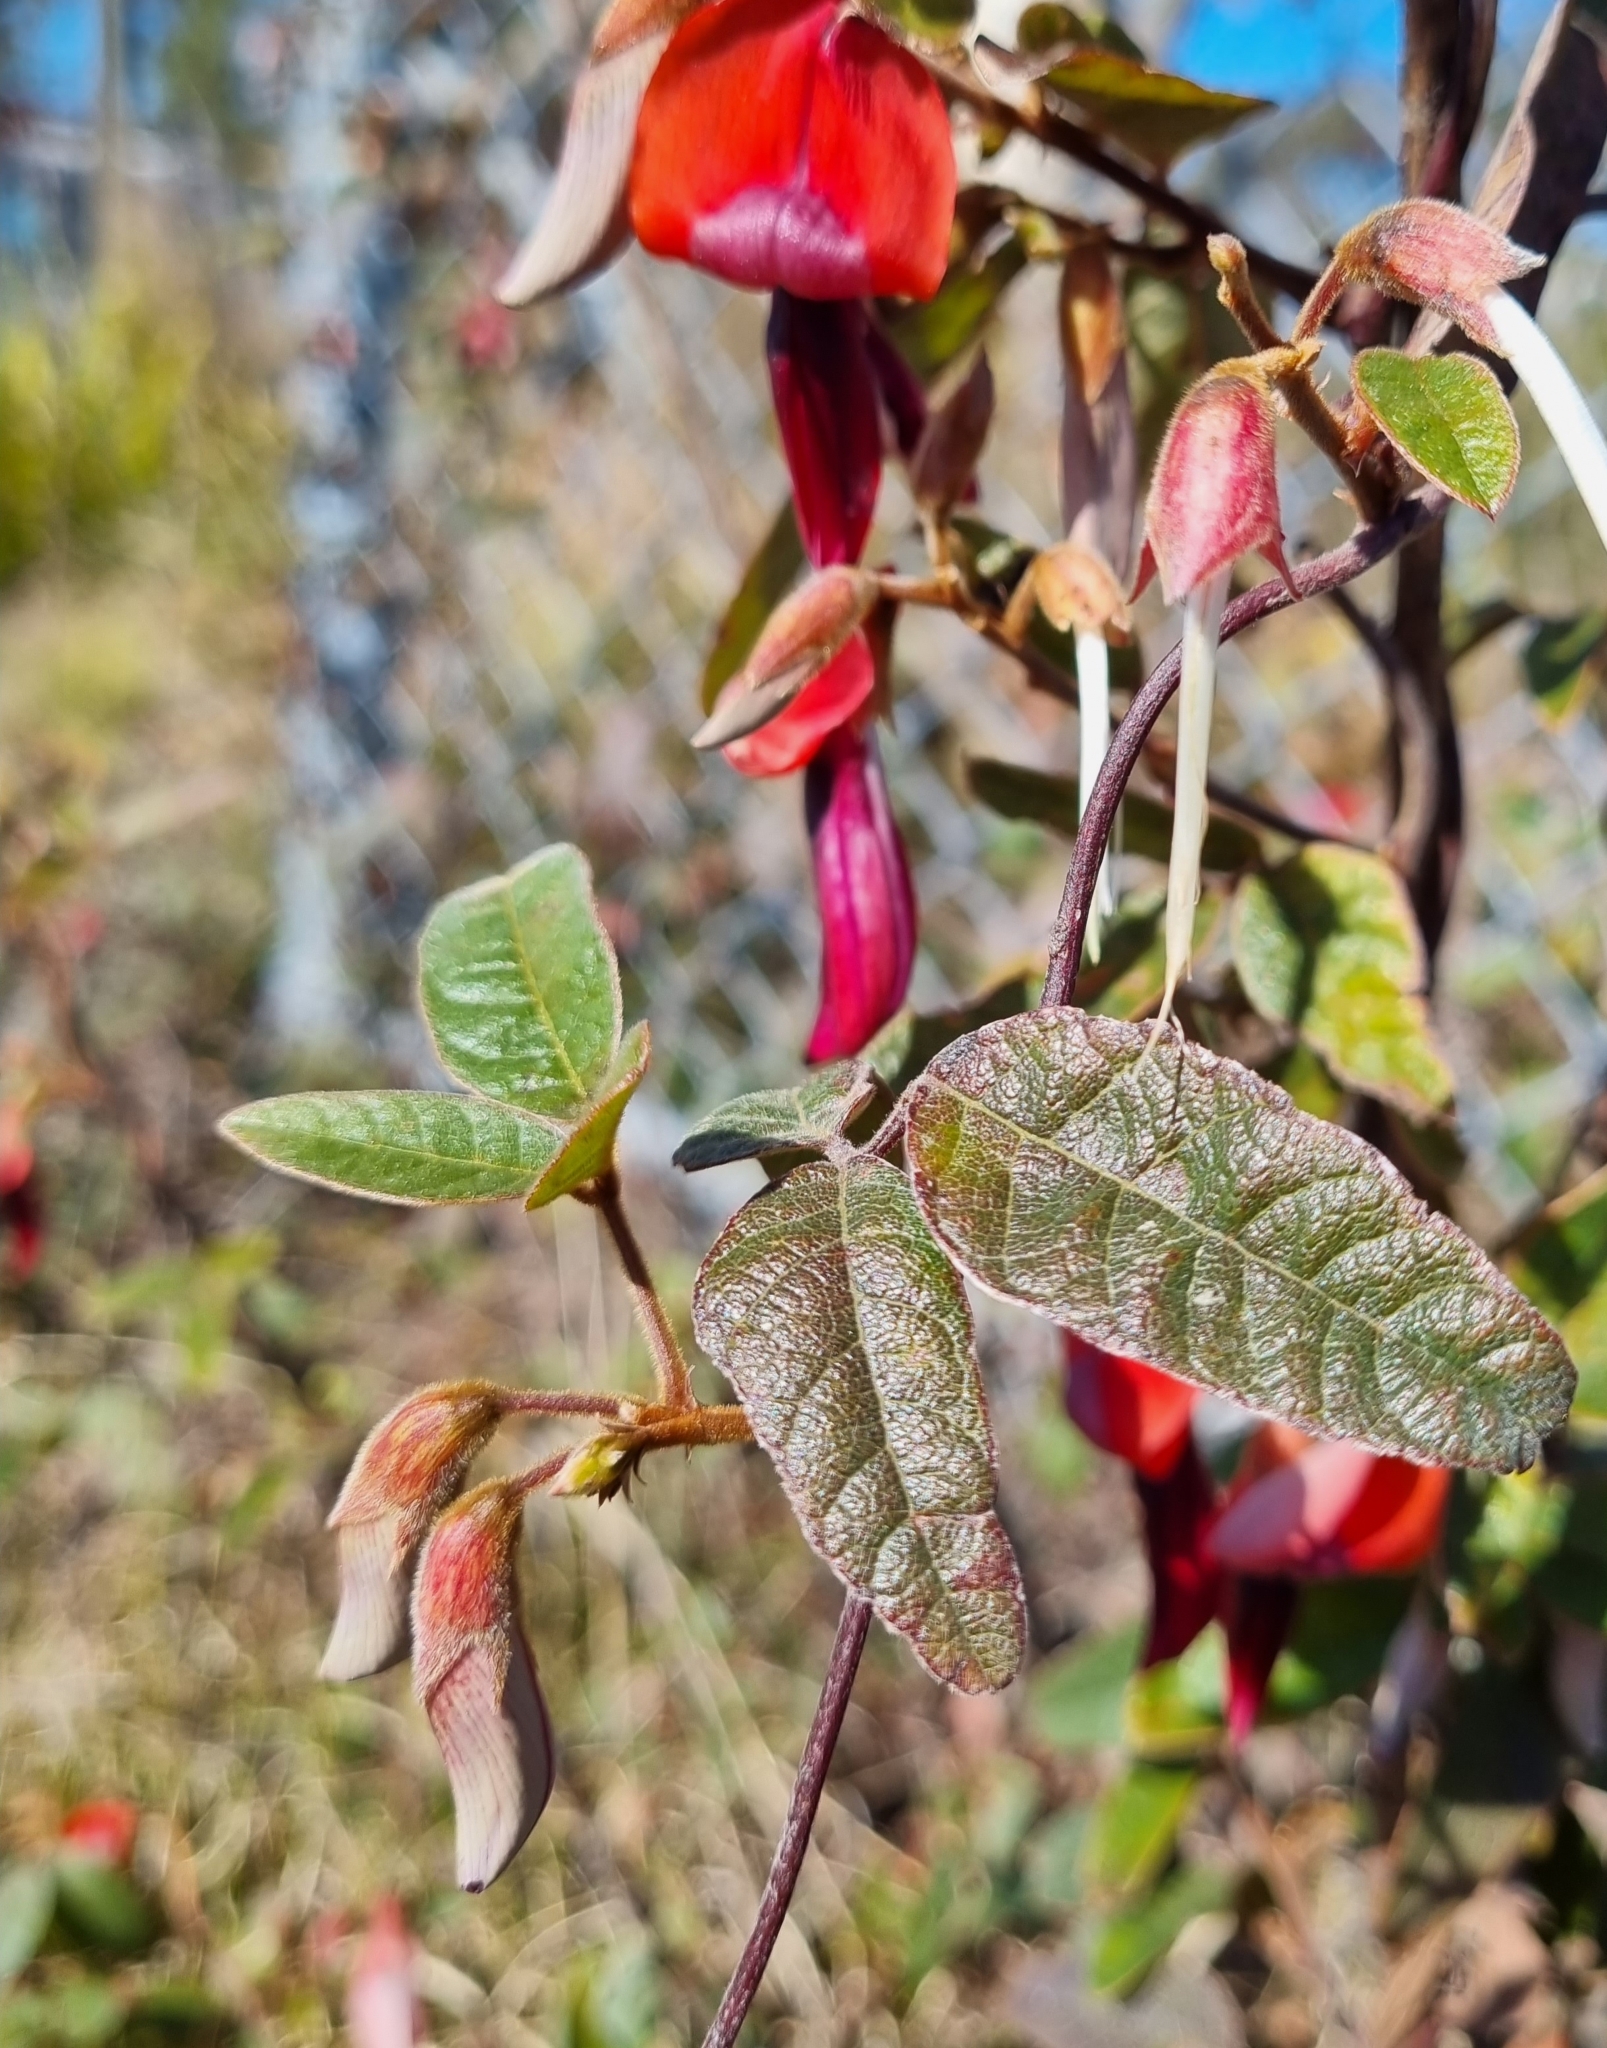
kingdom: Plantae
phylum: Tracheophyta
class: Magnoliopsida
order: Fabales
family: Fabaceae
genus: Kennedia
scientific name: Kennedia rubicunda
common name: Red kennedy-pea
